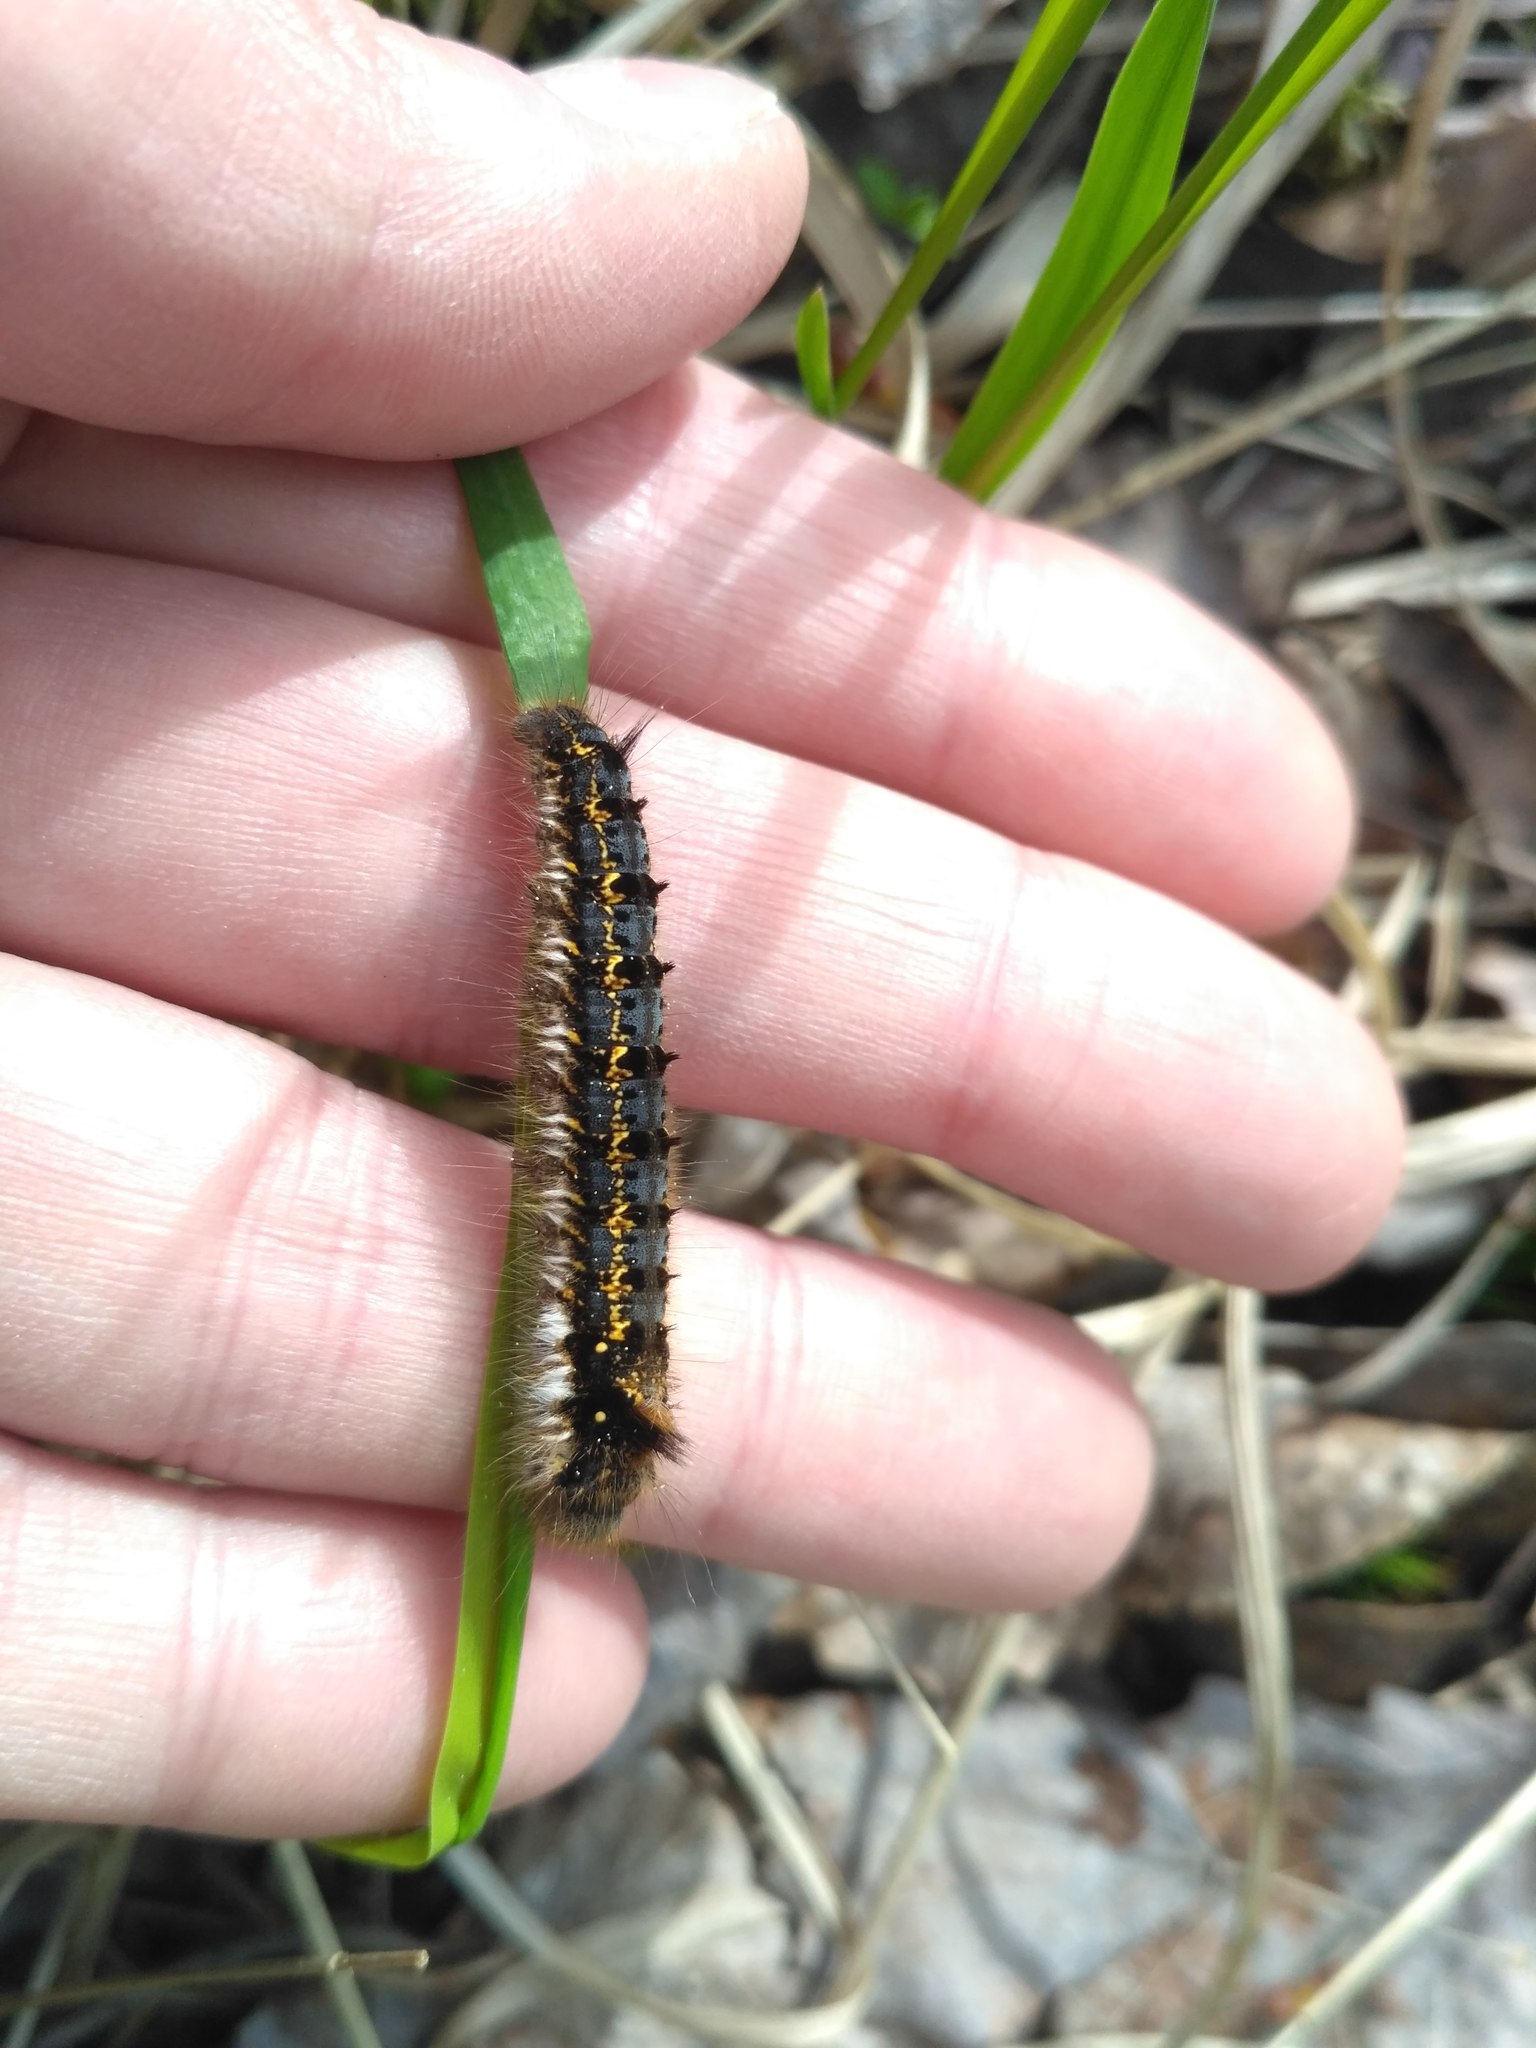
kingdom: Animalia
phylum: Arthropoda
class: Insecta
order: Lepidoptera
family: Lasiocampidae
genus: Euthrix
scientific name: Euthrix potatoria
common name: Drinker
